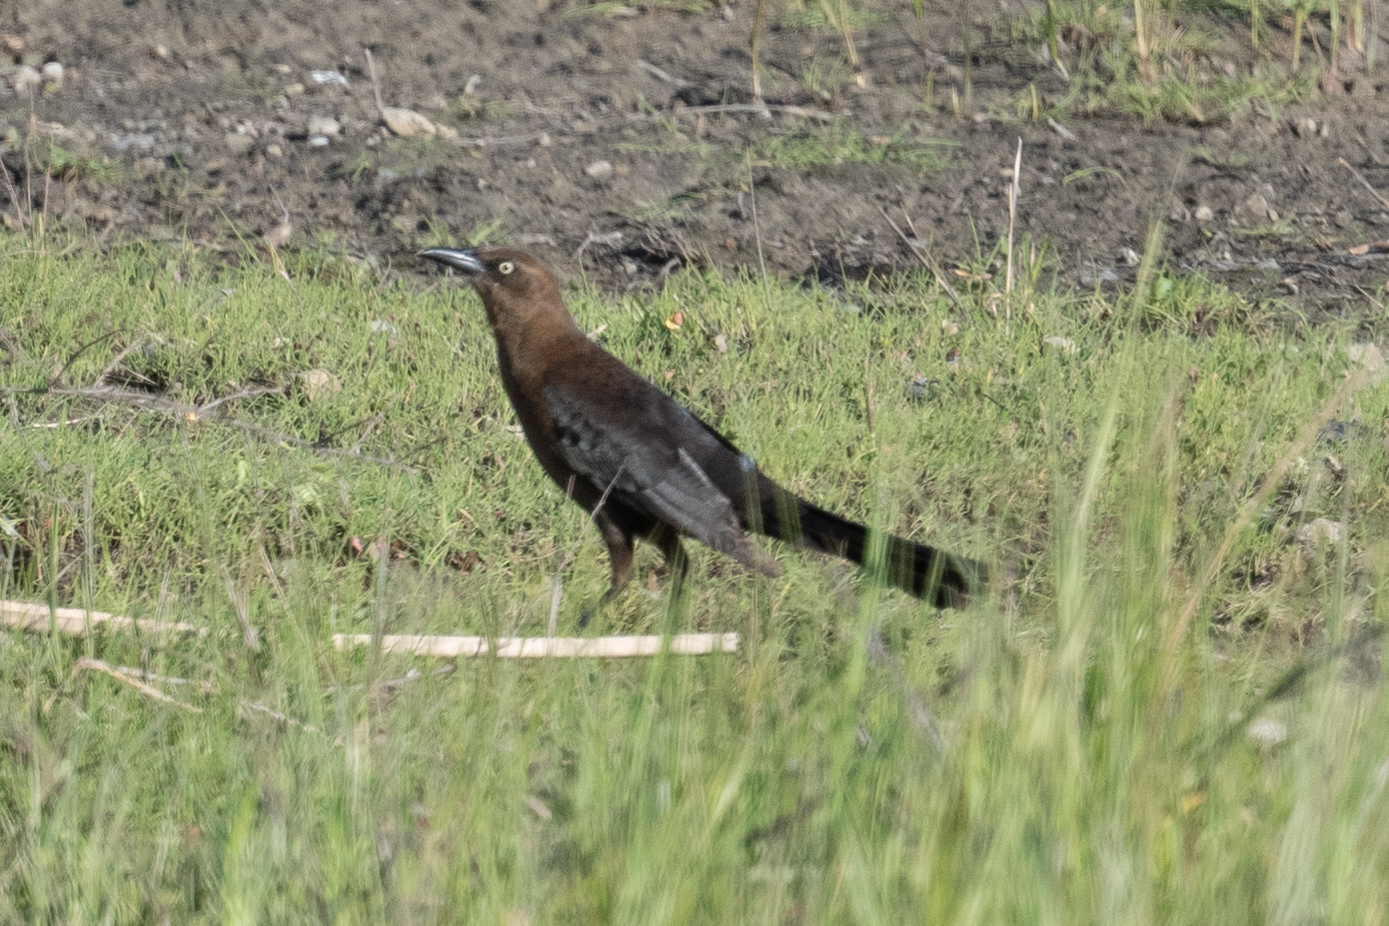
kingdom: Animalia
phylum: Chordata
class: Aves
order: Passeriformes
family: Icteridae
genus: Quiscalus
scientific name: Quiscalus mexicanus
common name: Great-tailed grackle
